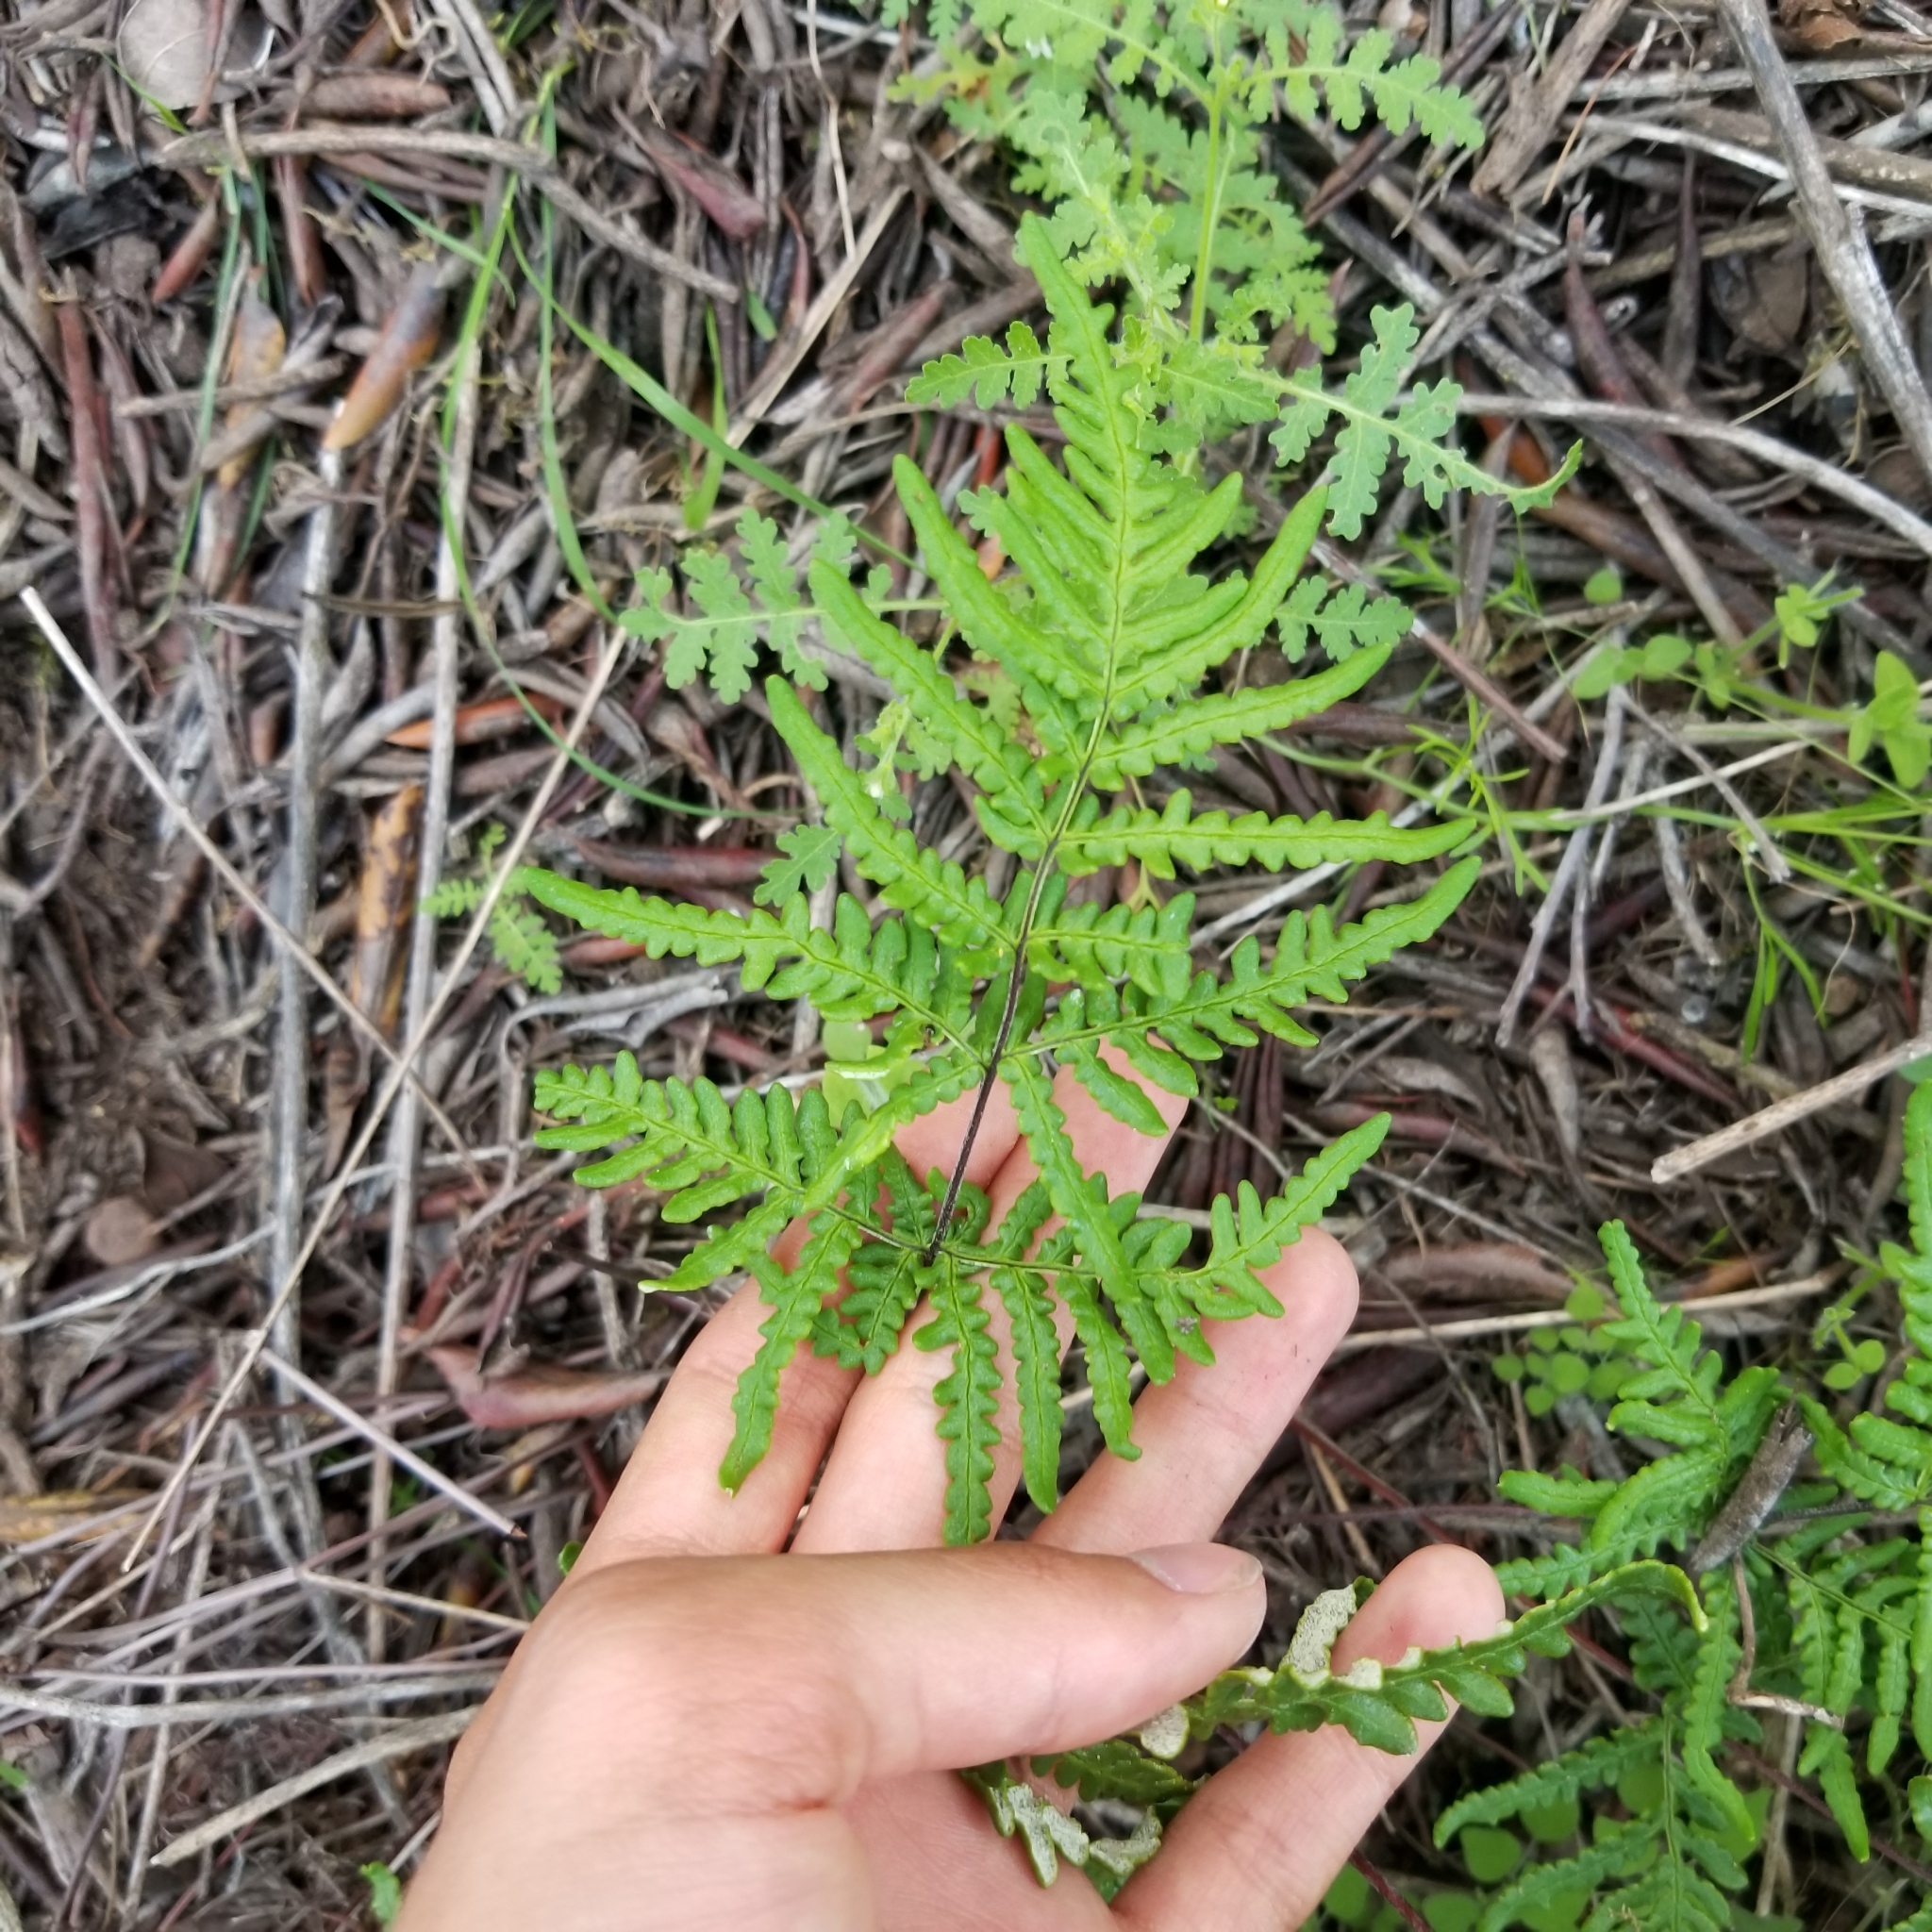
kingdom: Plantae
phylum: Tracheophyta
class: Polypodiopsida
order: Polypodiales
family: Pteridaceae
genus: Pentagramma
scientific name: Pentagramma viscosa
